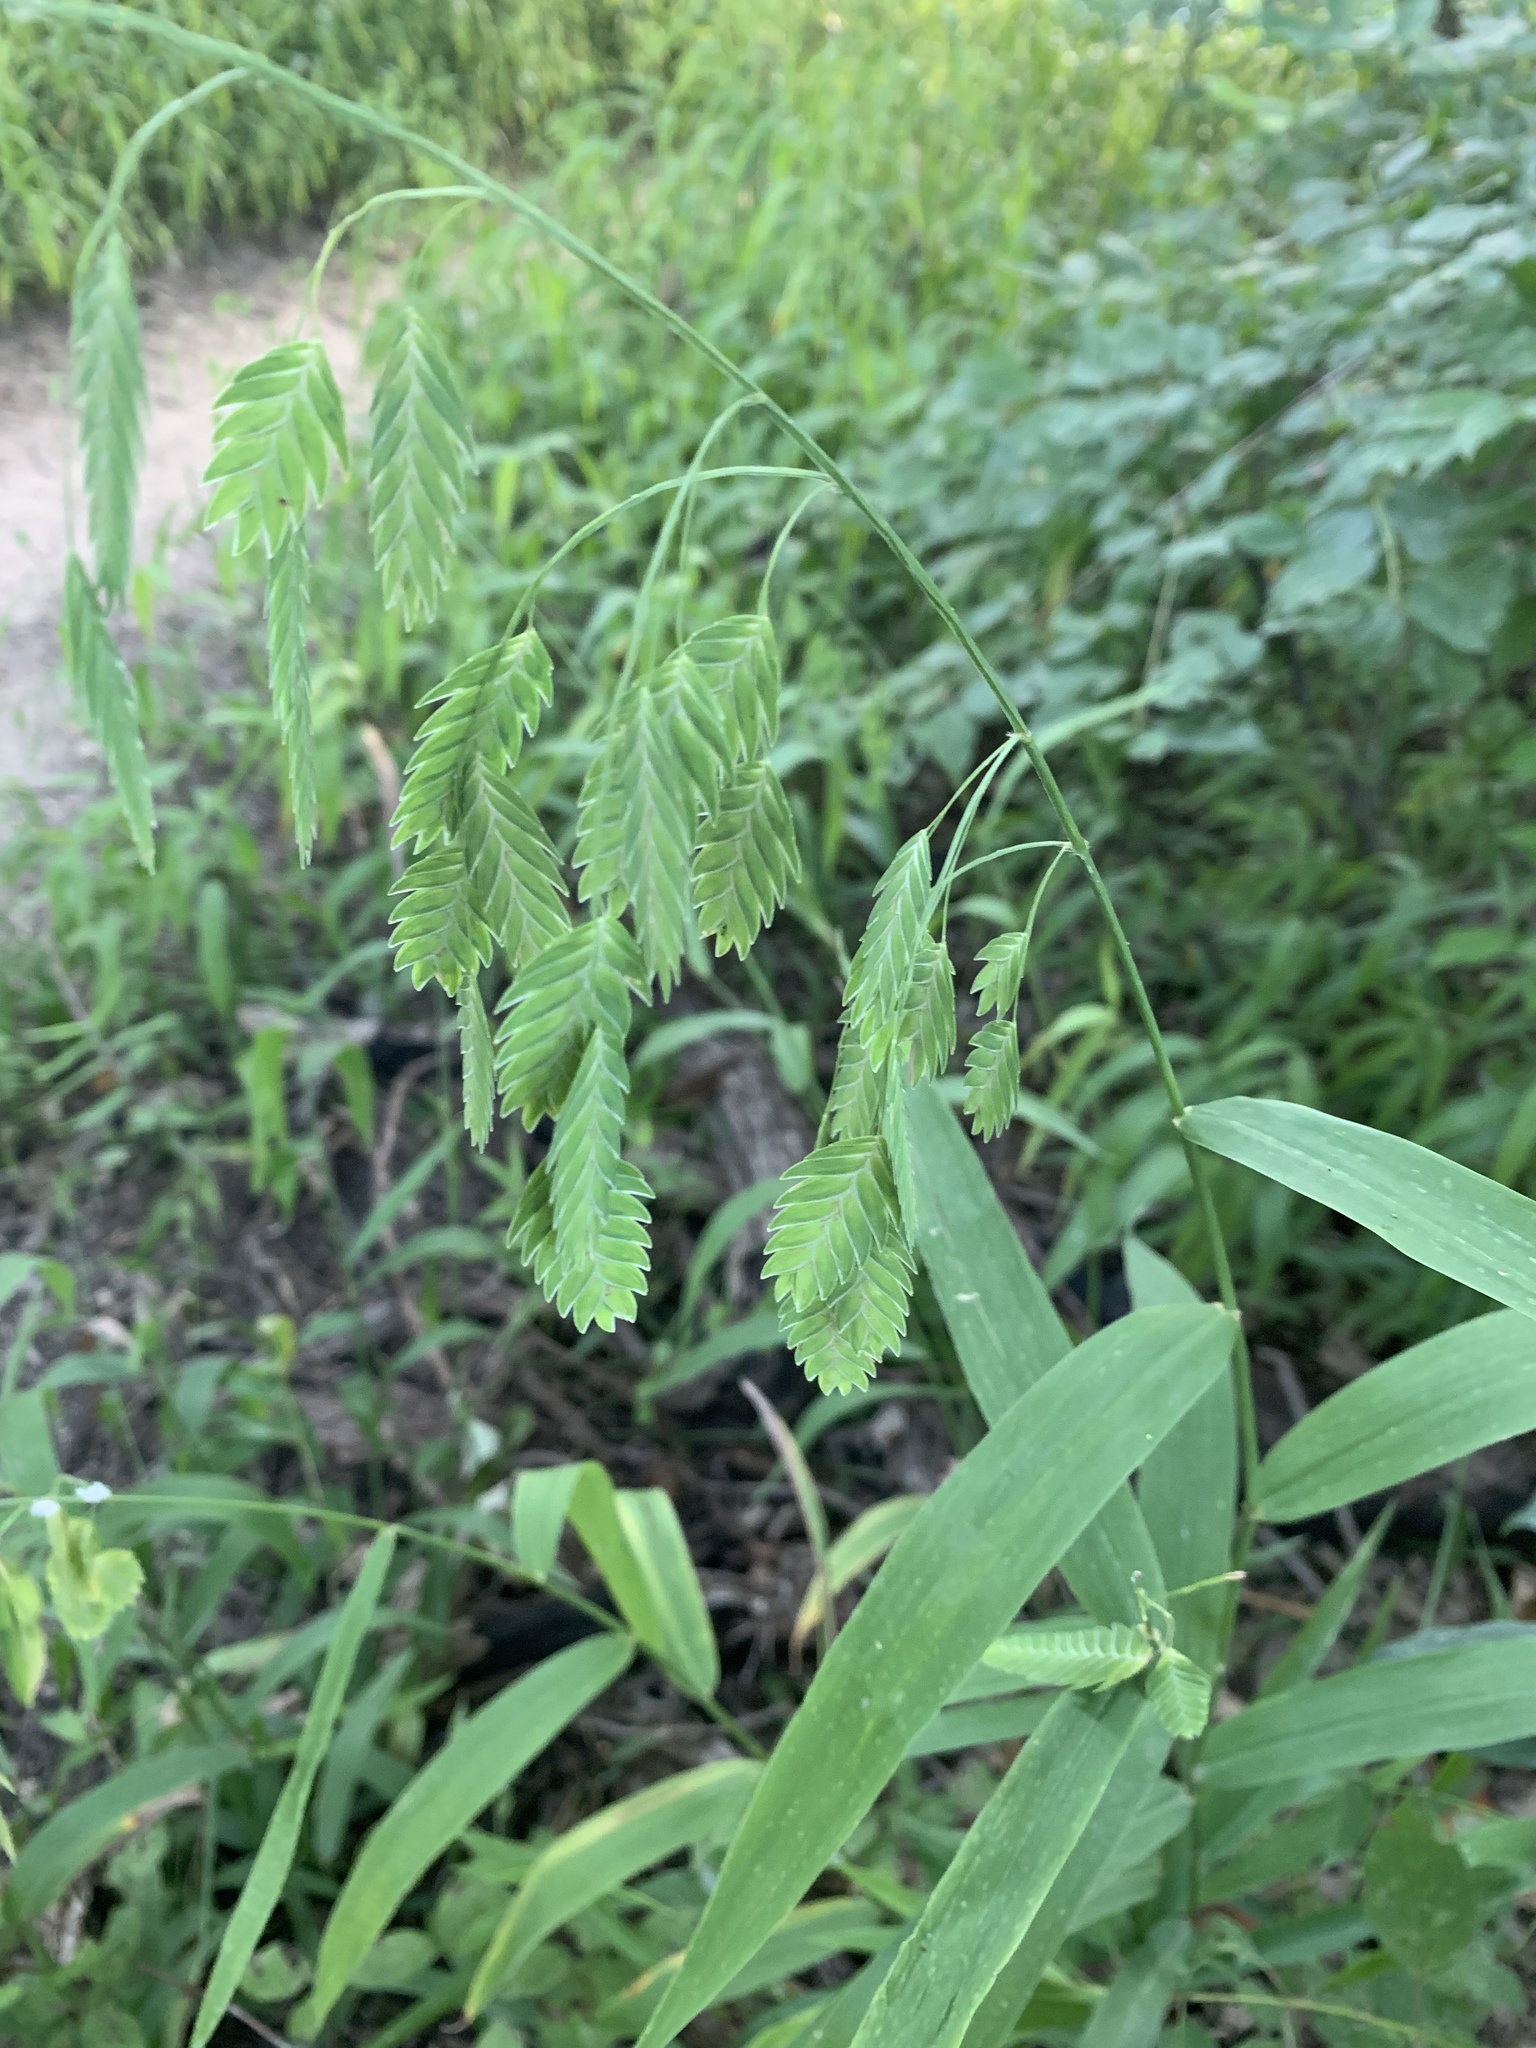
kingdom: Plantae
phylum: Tracheophyta
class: Liliopsida
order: Poales
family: Poaceae
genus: Chasmanthium
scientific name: Chasmanthium latifolium
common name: Broad-leaved chasmanthium
